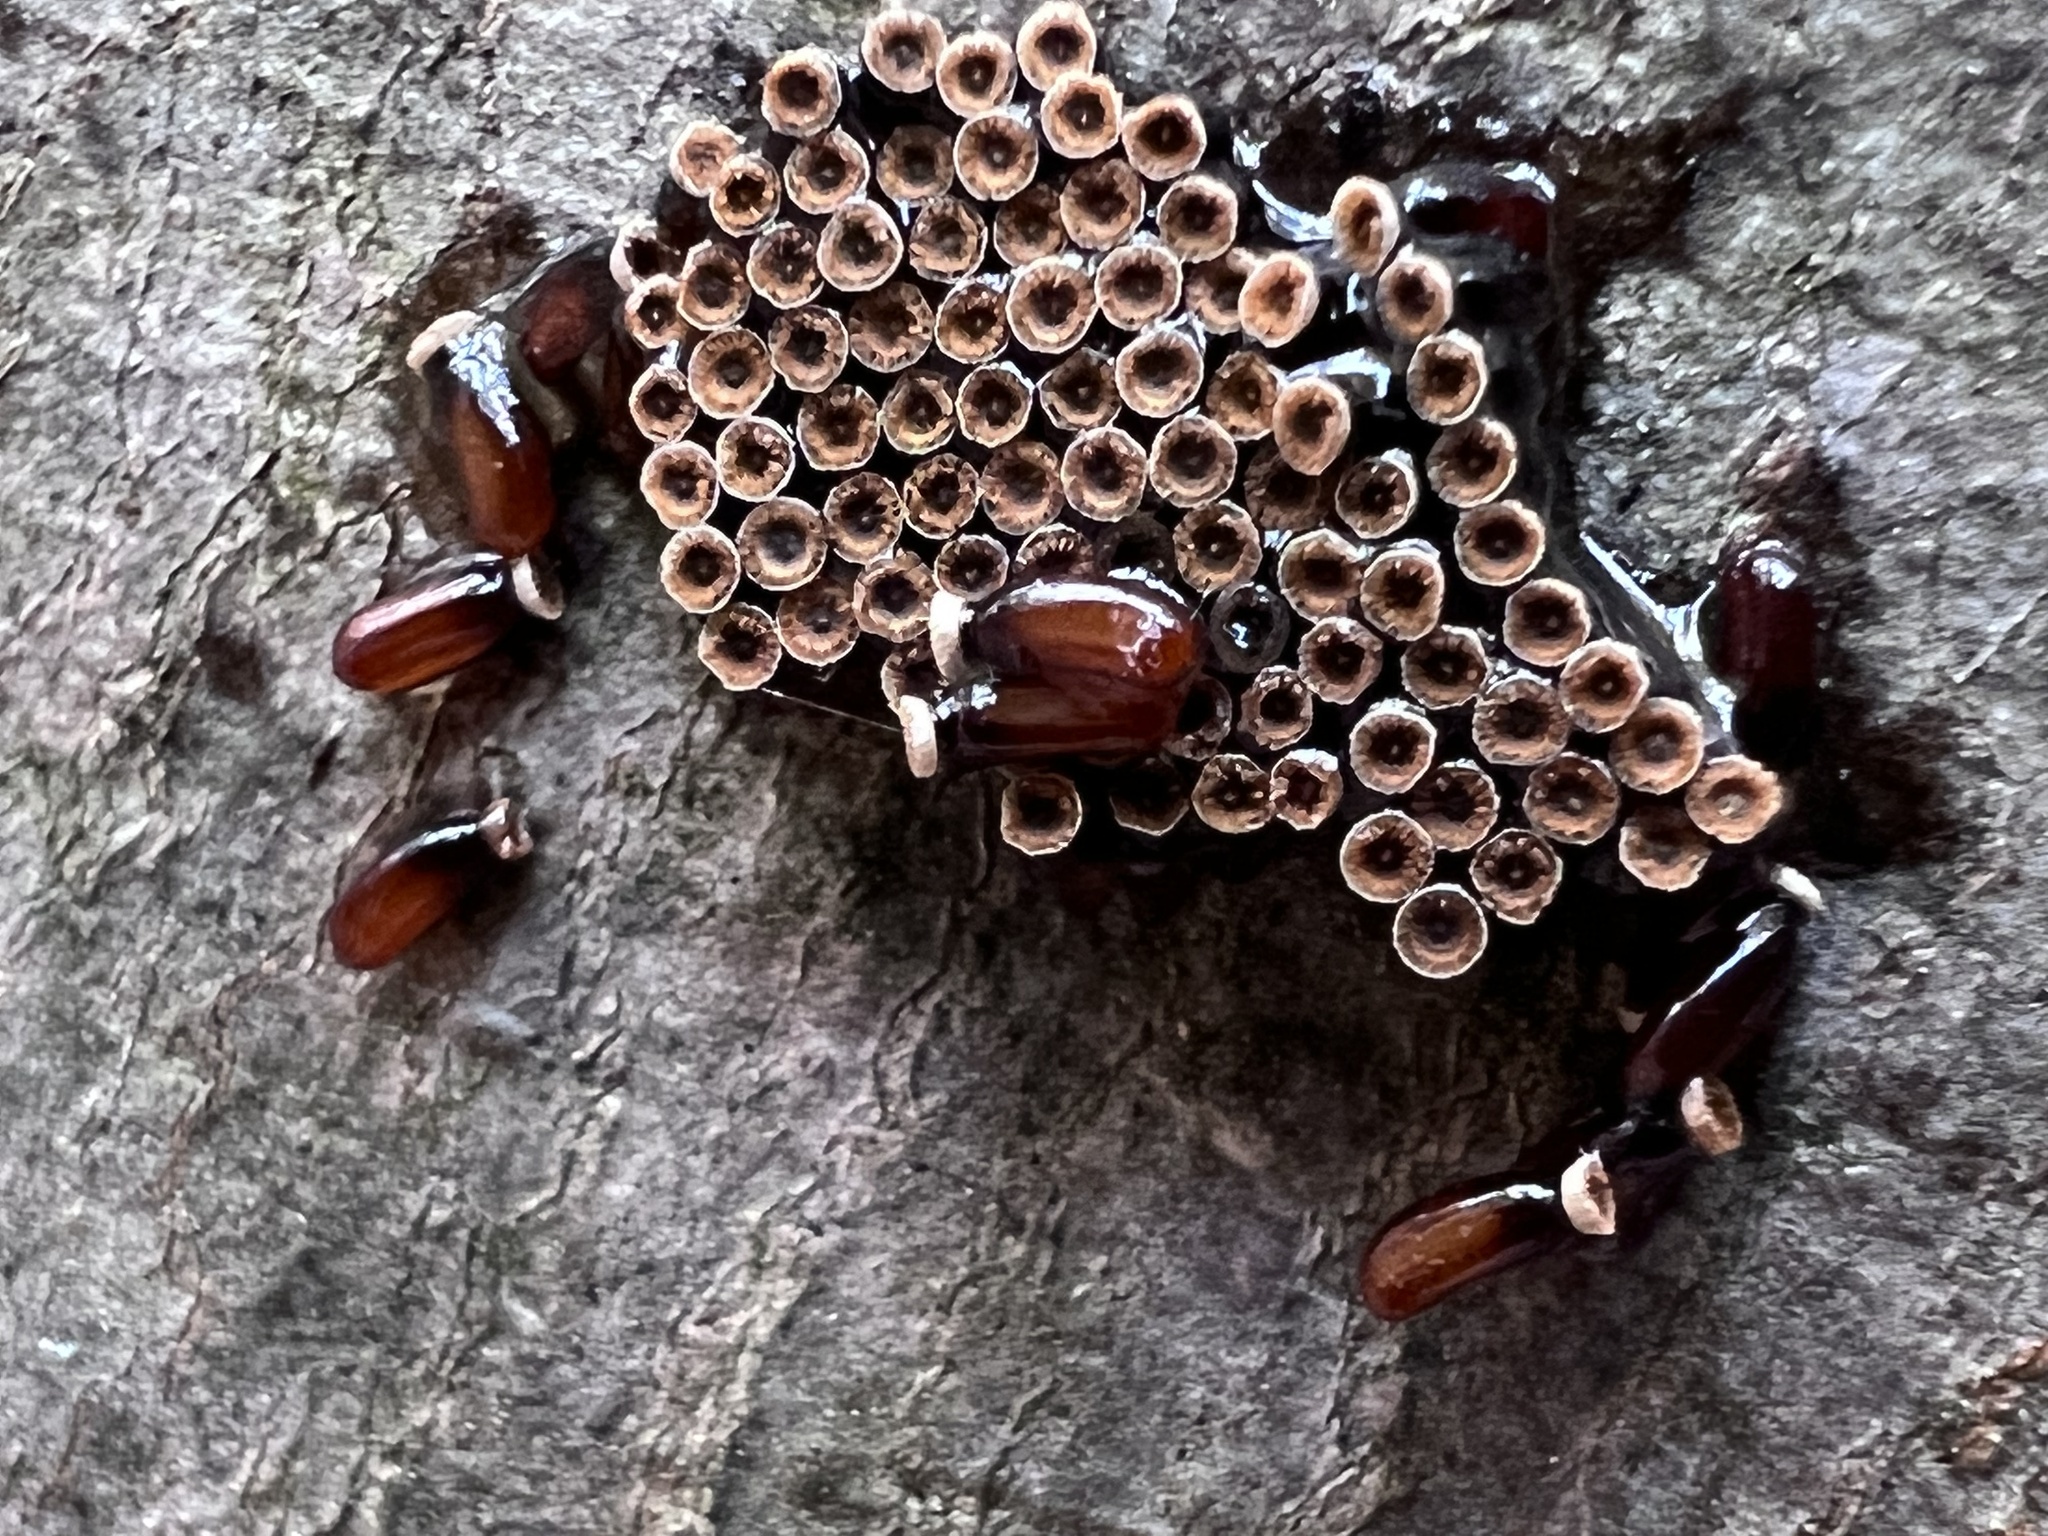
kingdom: Animalia
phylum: Arthropoda
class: Insecta
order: Hemiptera
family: Reduviidae
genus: Arilus
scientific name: Arilus cristatus
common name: North american wheel bug
